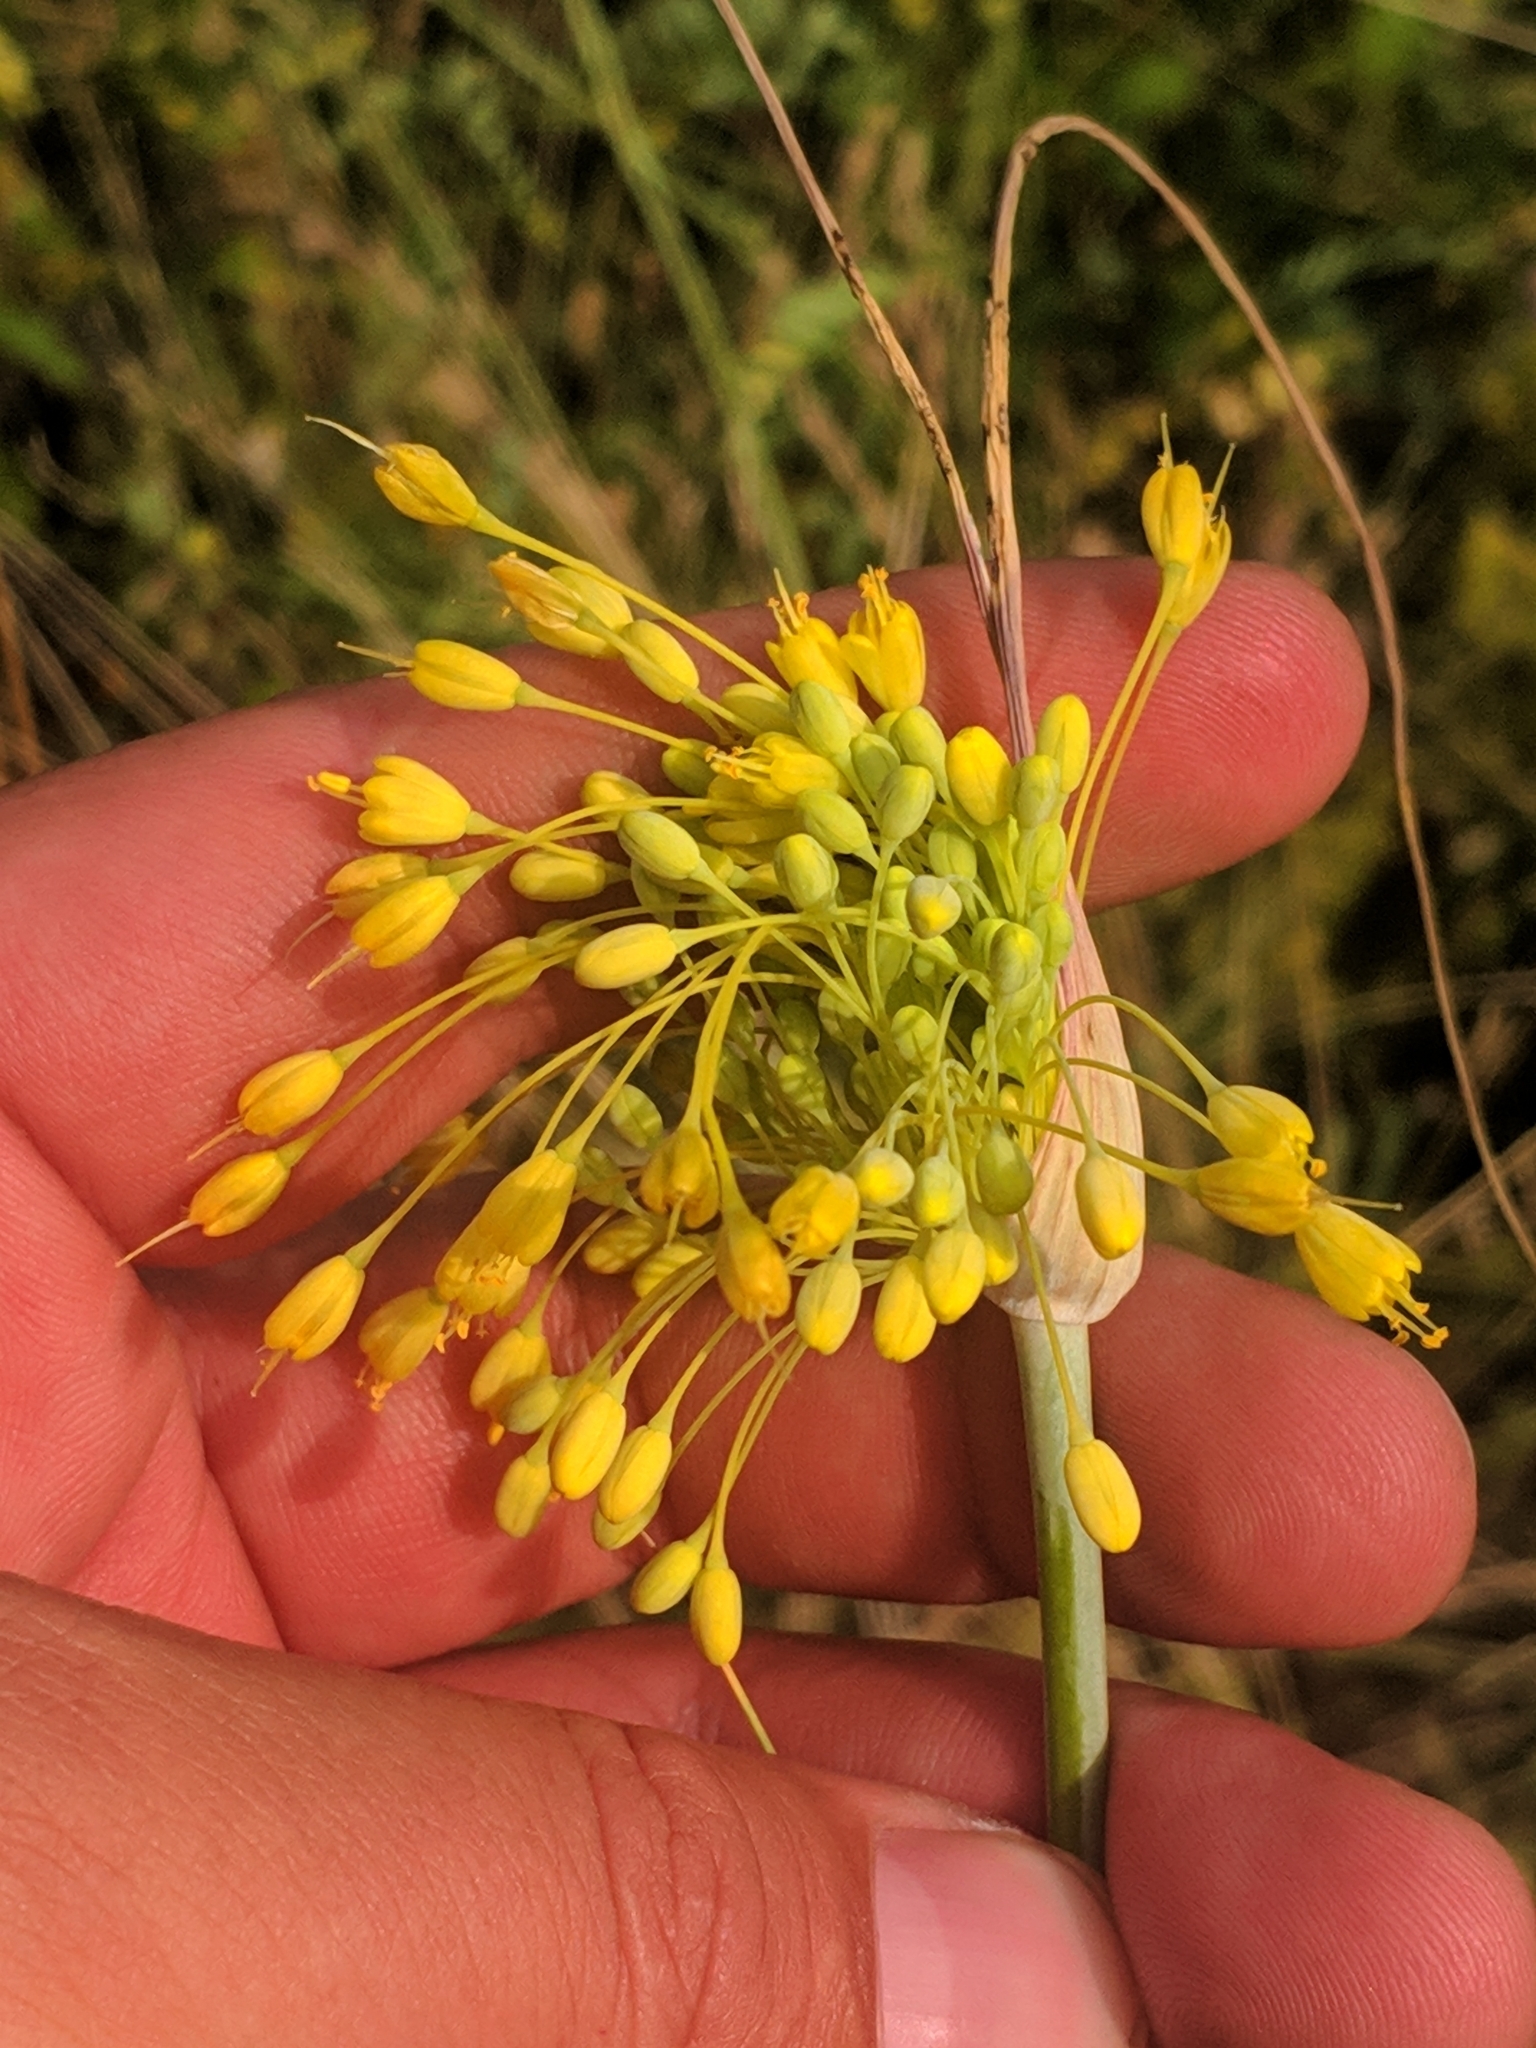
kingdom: Plantae
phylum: Tracheophyta
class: Liliopsida
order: Asparagales
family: Amaryllidaceae
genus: Allium
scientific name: Allium flavum
